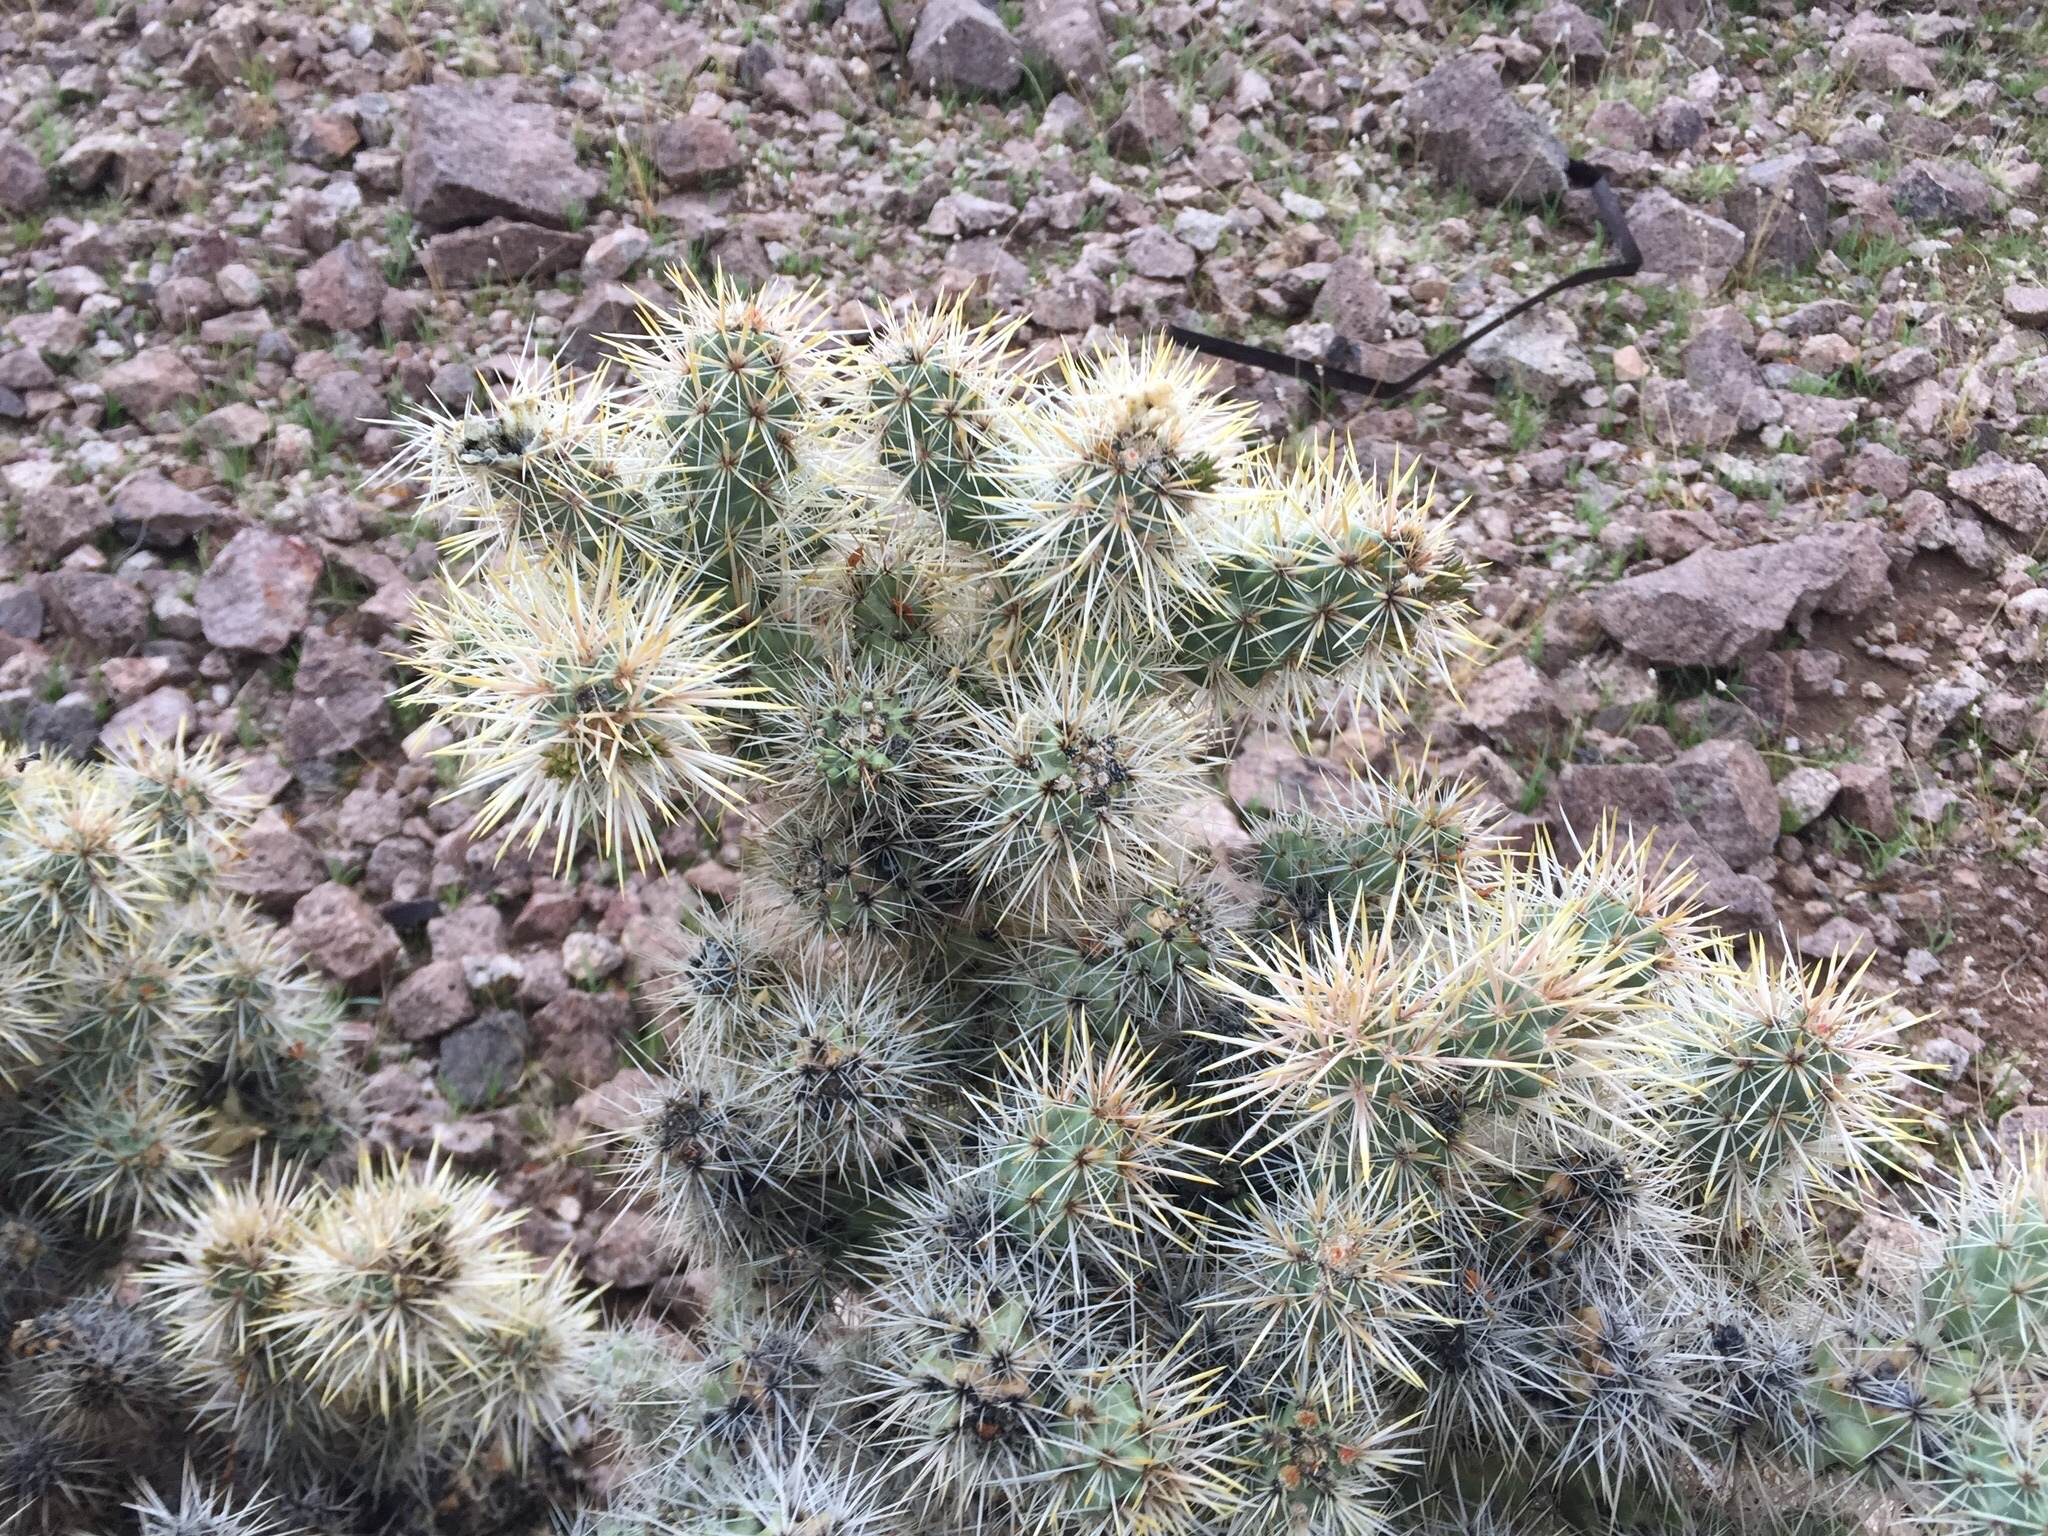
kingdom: Plantae
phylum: Tracheophyta
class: Magnoliopsida
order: Caryophyllales
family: Cactaceae
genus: Cylindropuntia
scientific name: Cylindropuntia echinocarpa
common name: Ground cholla
